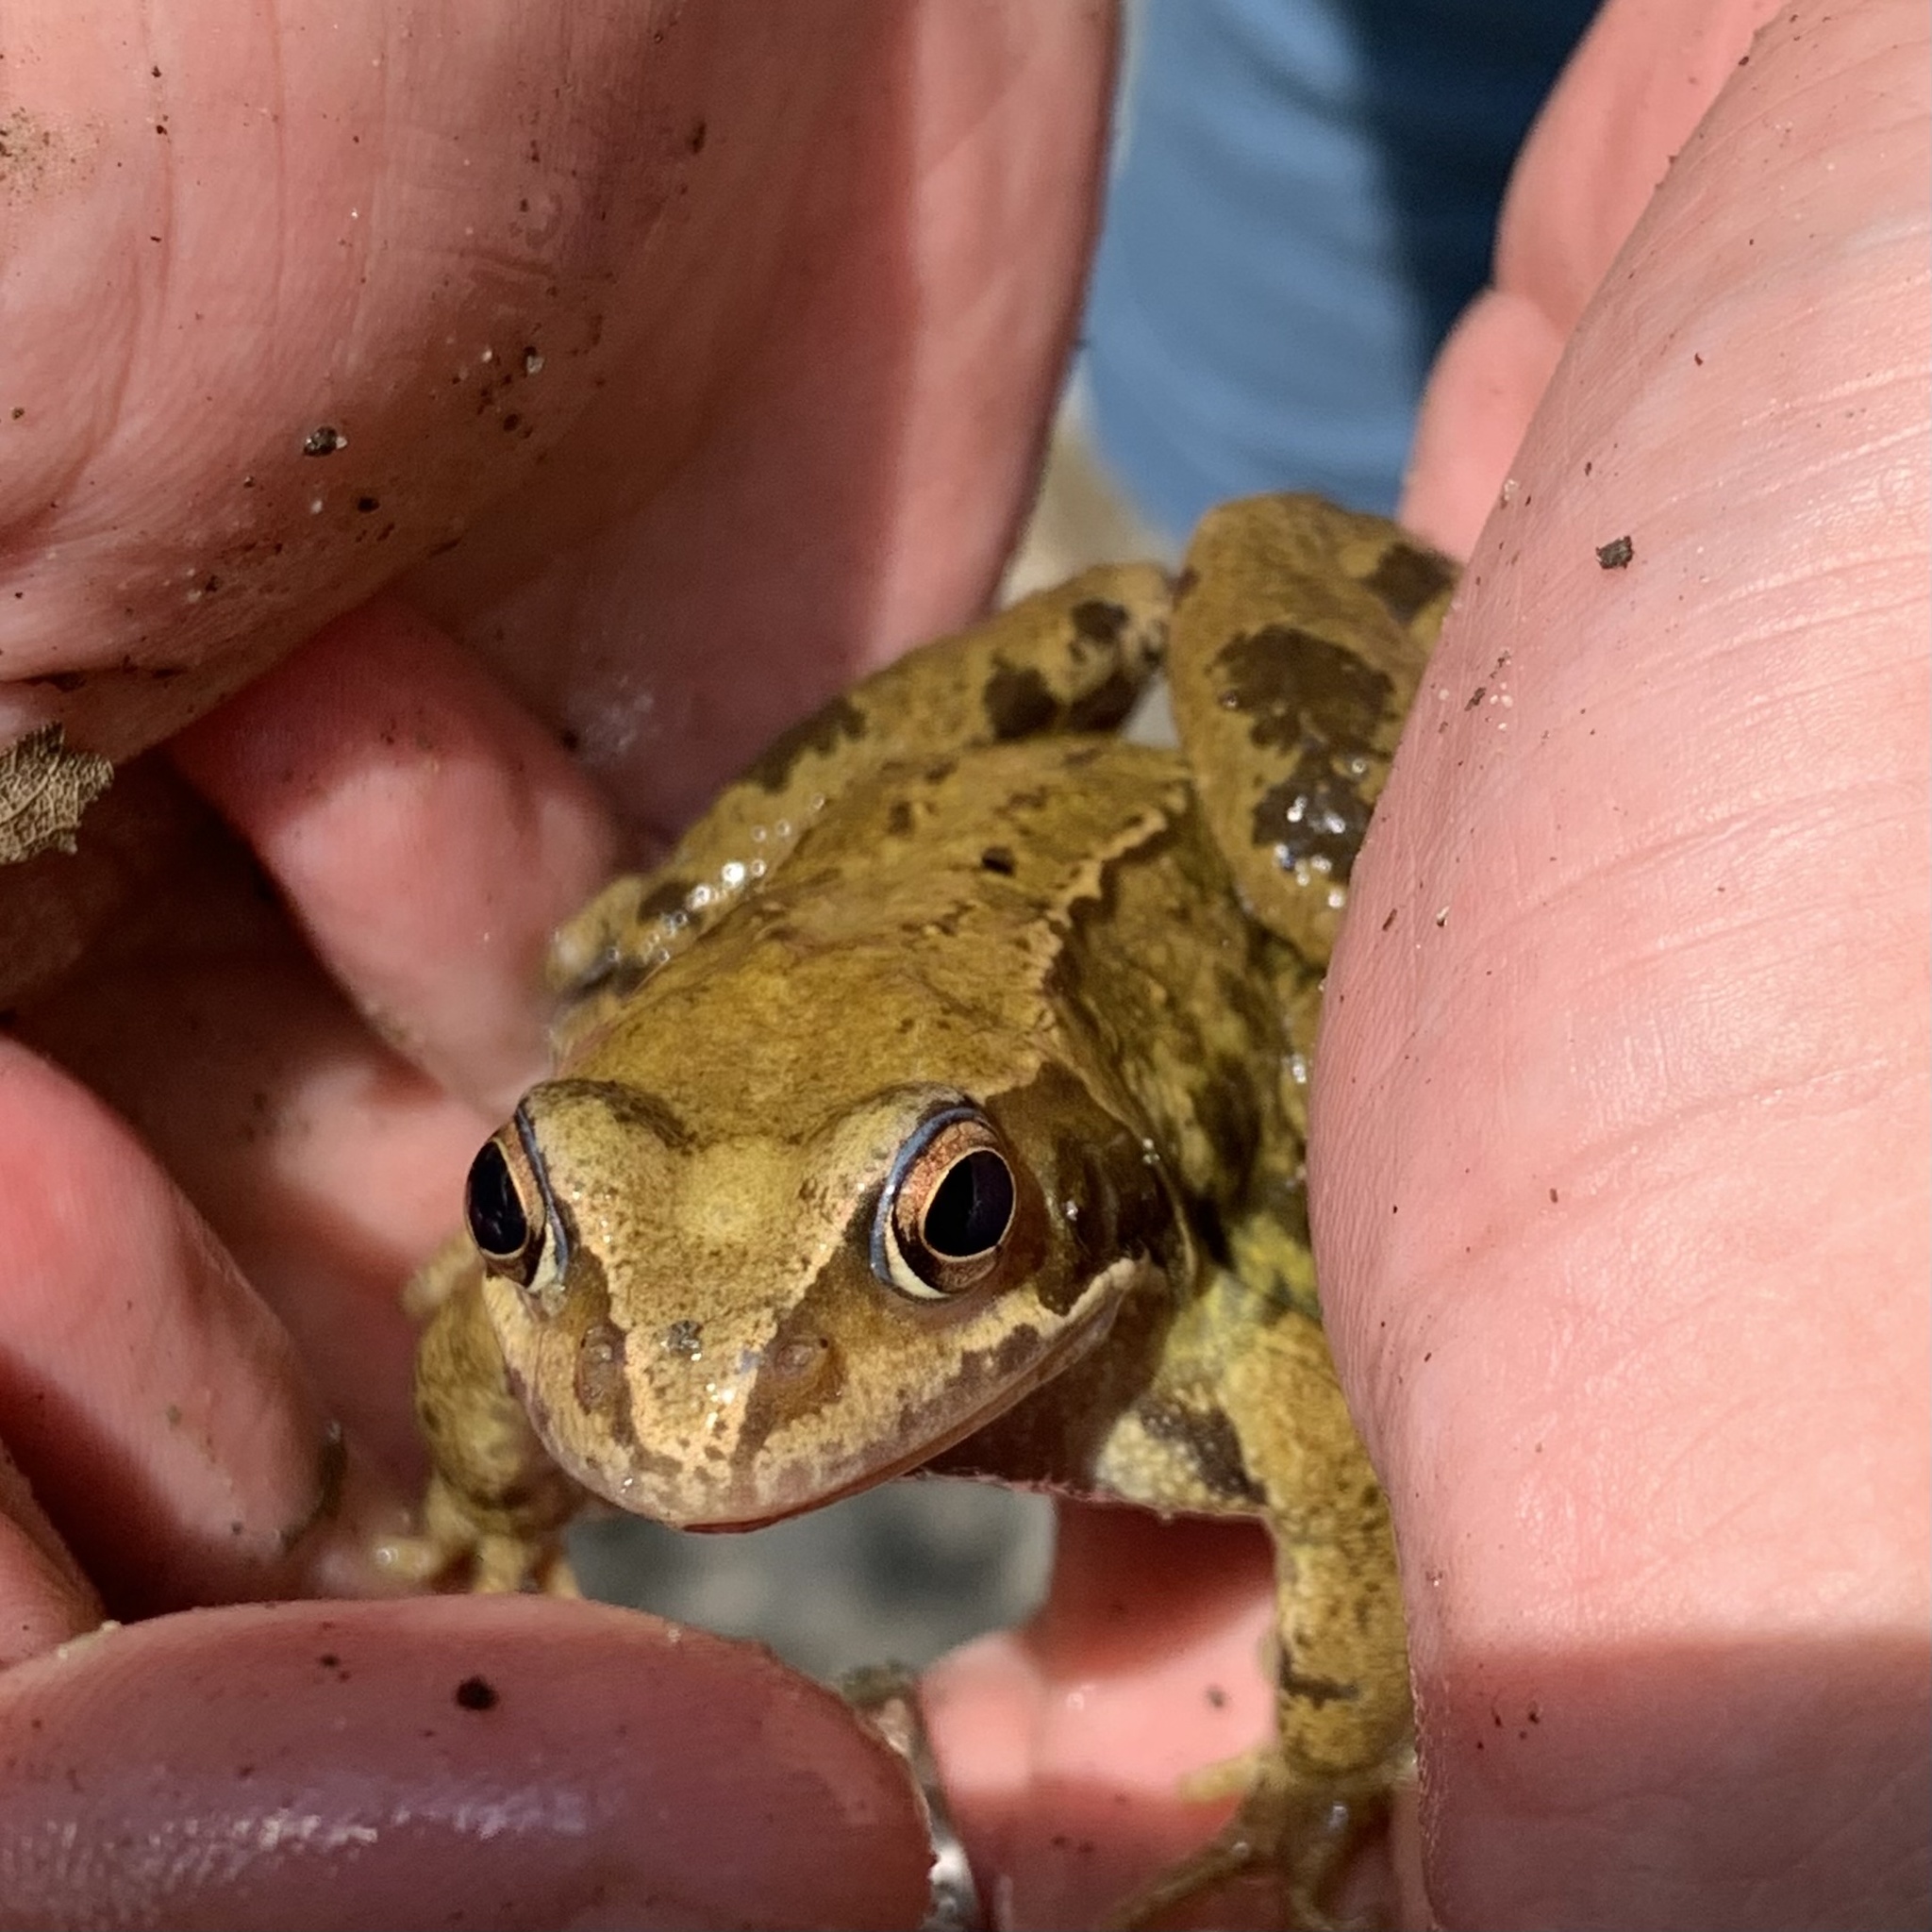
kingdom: Animalia
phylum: Chordata
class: Amphibia
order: Anura
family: Ranidae
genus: Rana
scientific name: Rana temporaria
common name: Common frog
